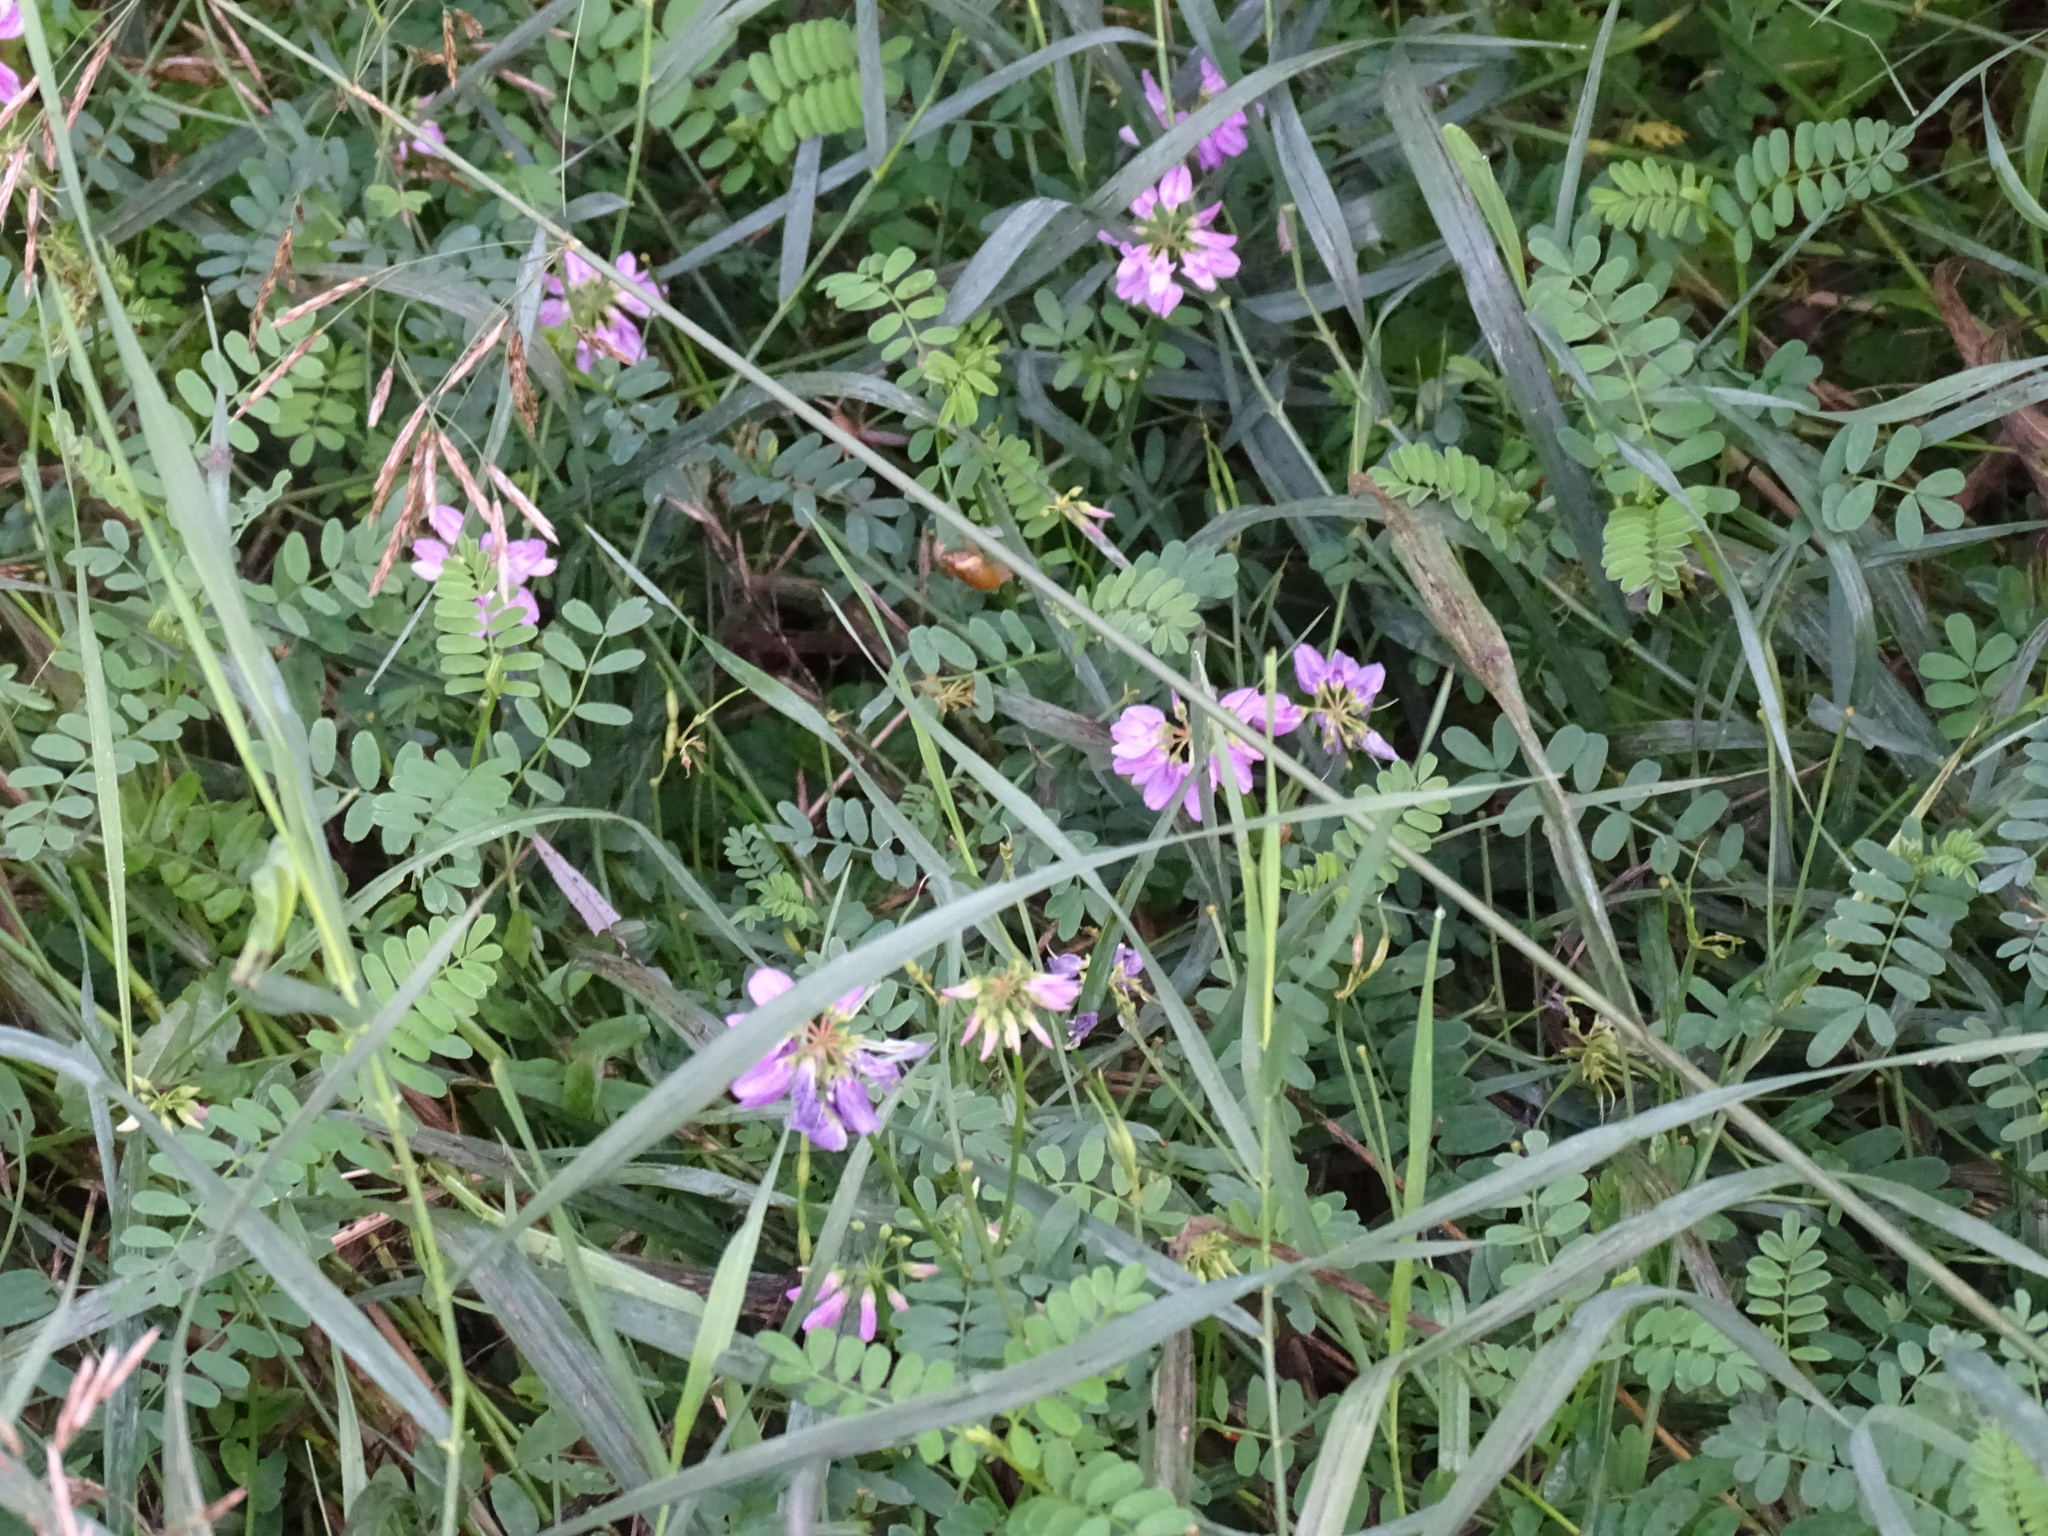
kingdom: Plantae
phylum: Tracheophyta
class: Magnoliopsida
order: Fabales
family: Fabaceae
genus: Coronilla
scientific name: Coronilla varia
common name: Crownvetch
